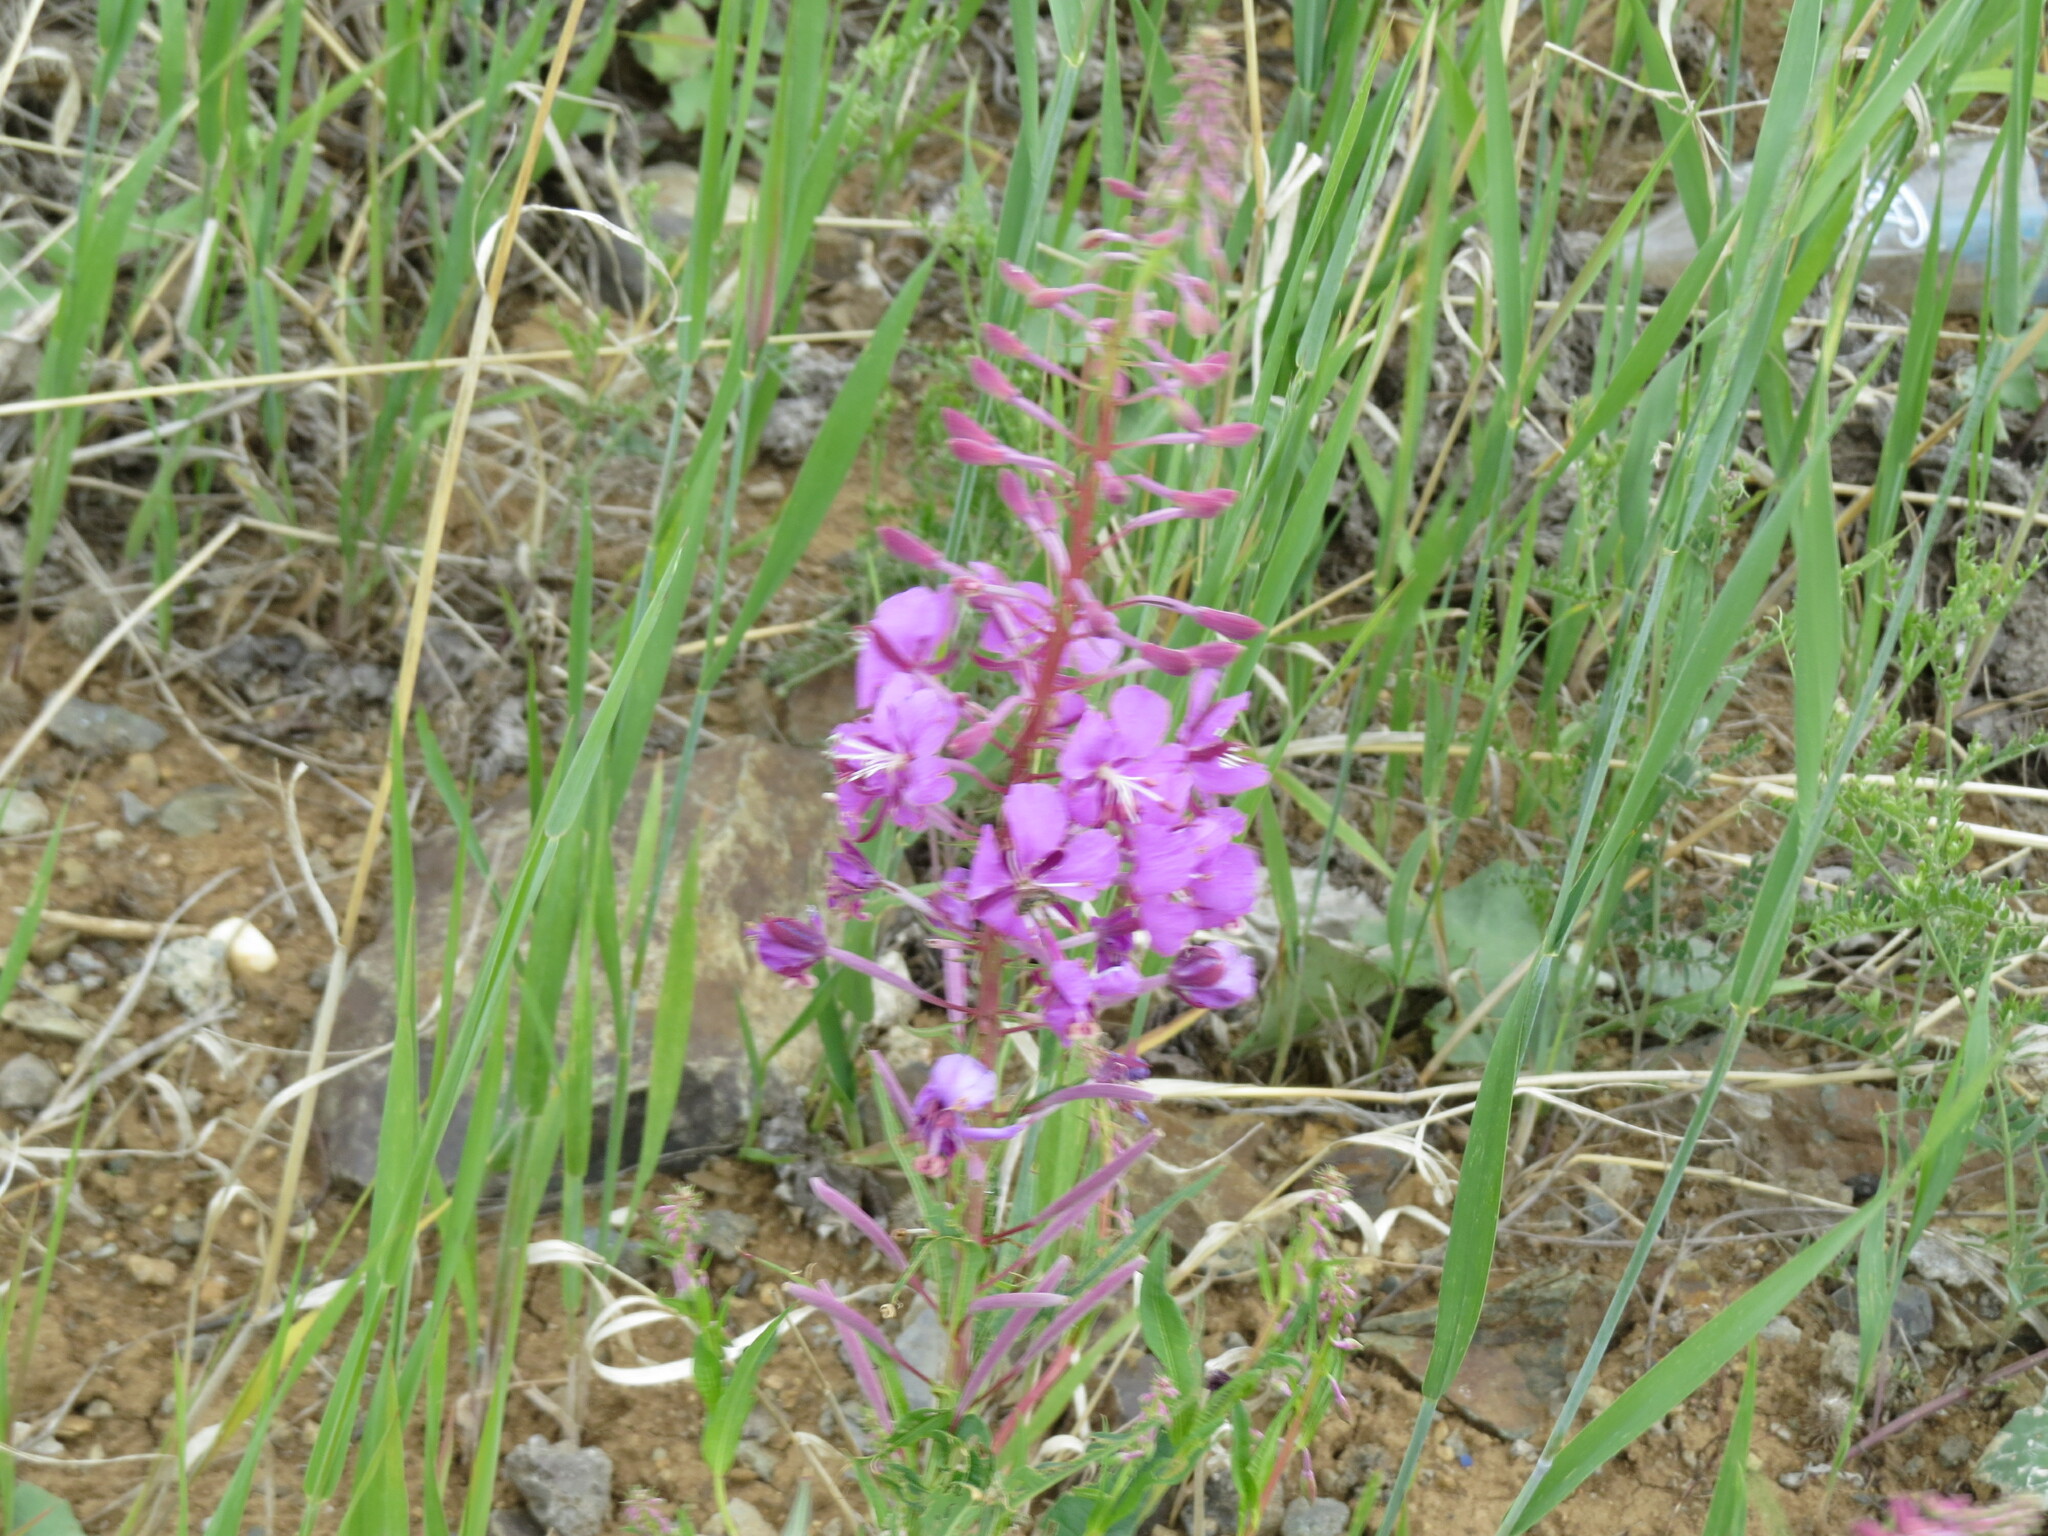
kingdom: Plantae
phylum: Tracheophyta
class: Magnoliopsida
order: Myrtales
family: Onagraceae
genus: Chamaenerion
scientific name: Chamaenerion angustifolium
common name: Fireweed
